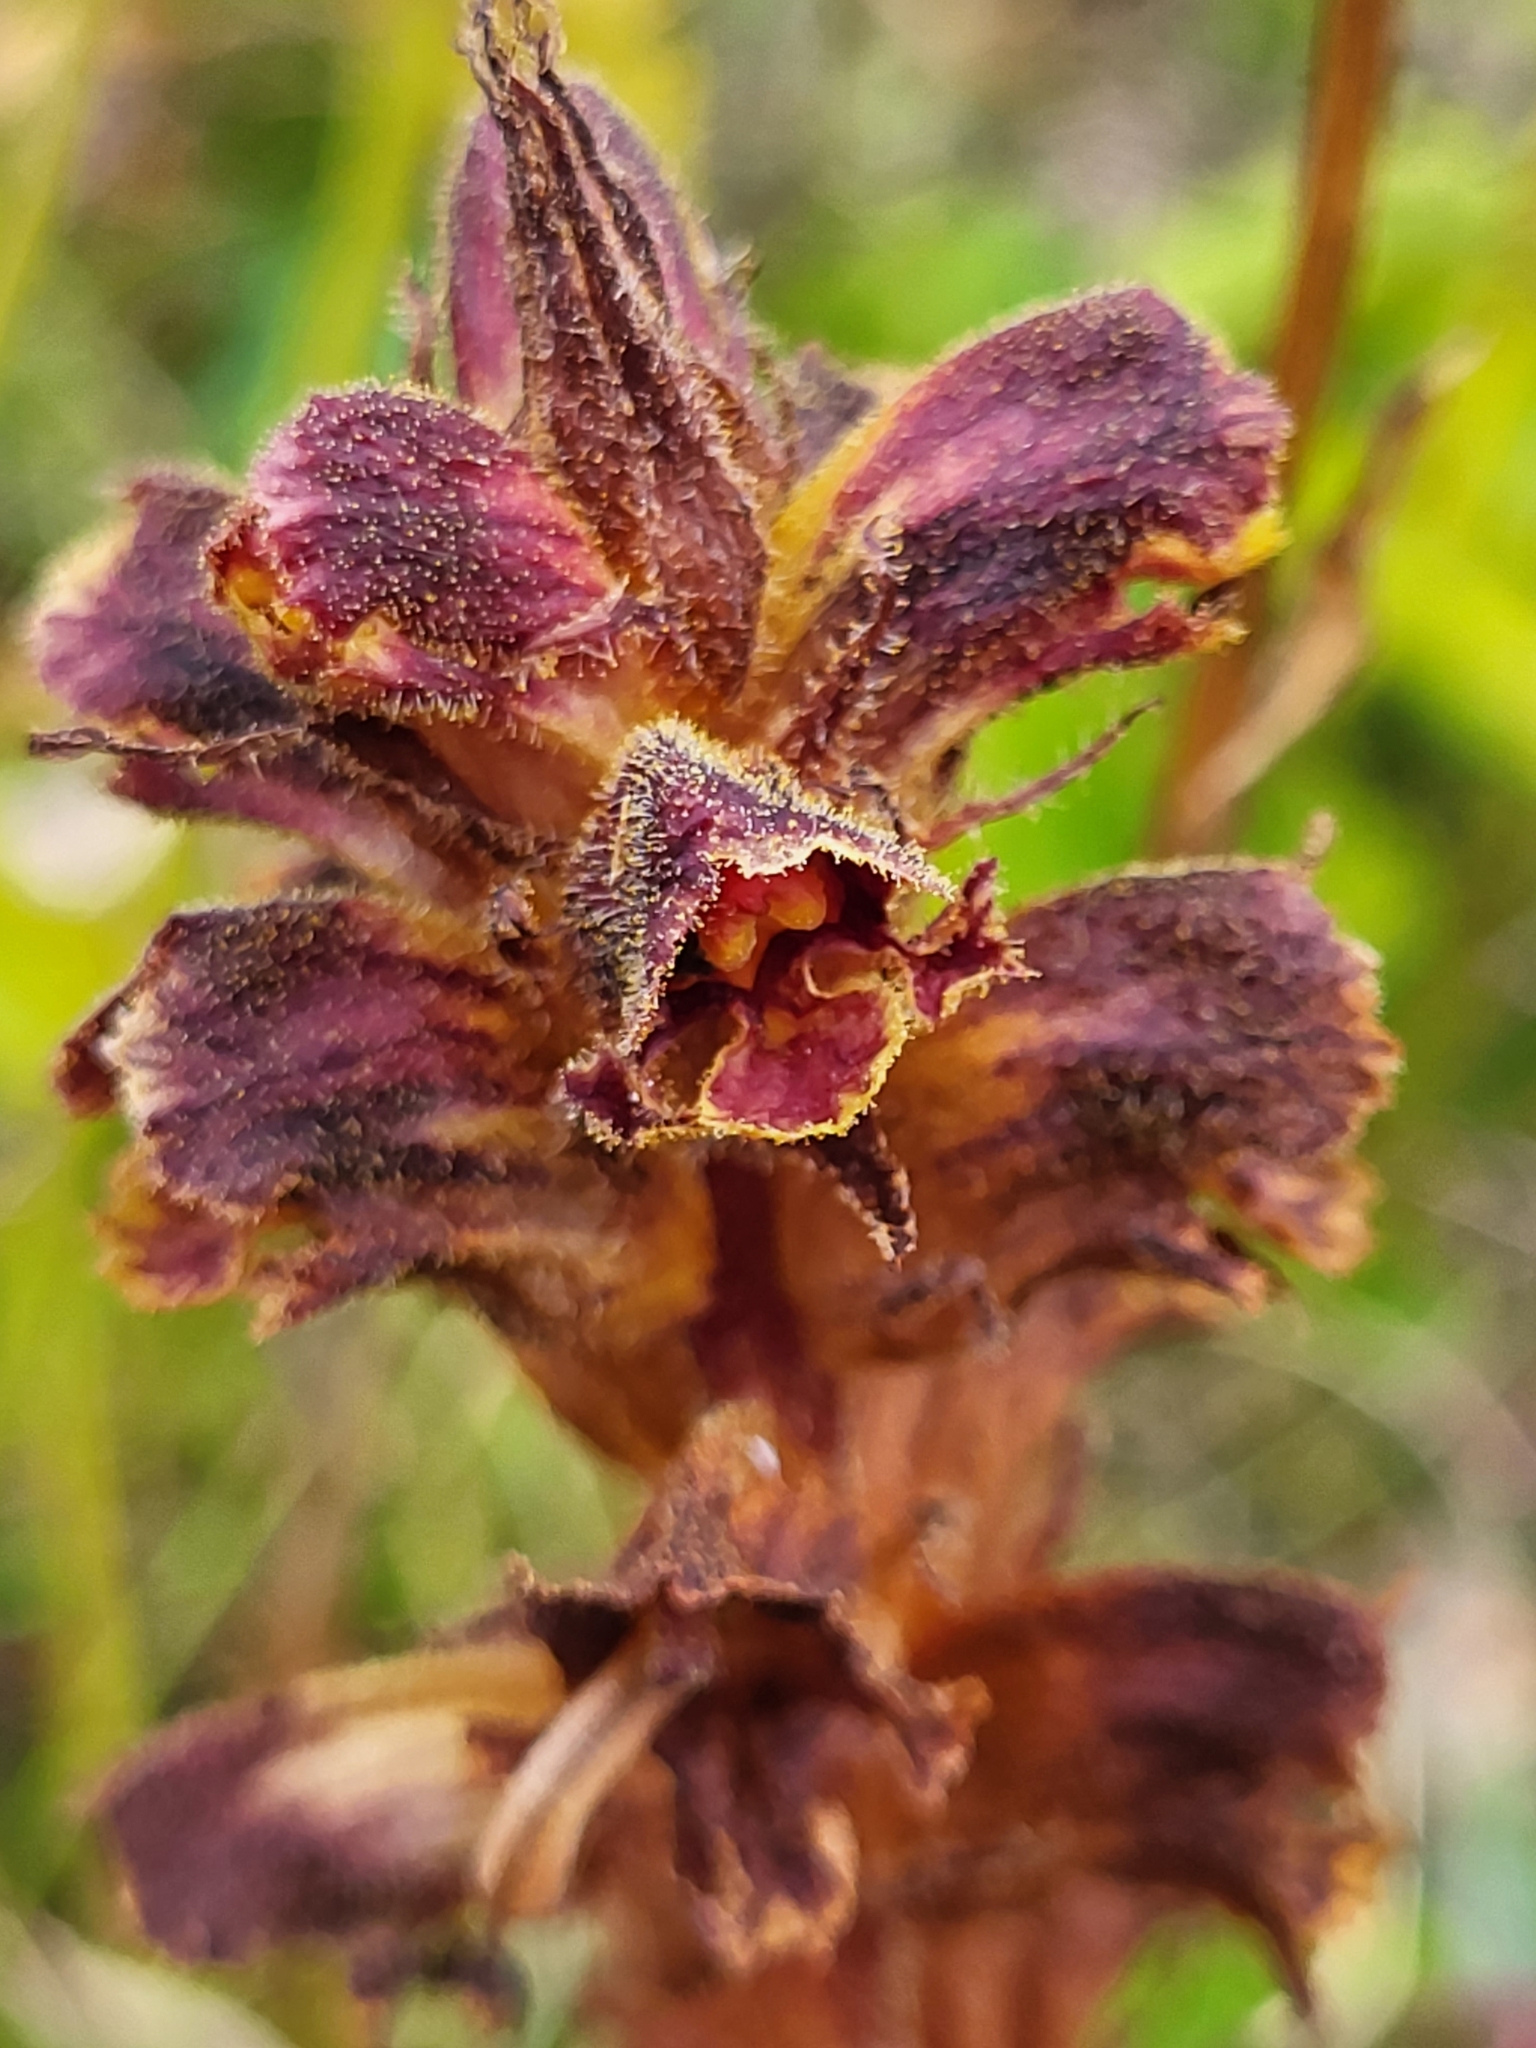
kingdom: Plantae
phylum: Tracheophyta
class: Magnoliopsida
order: Lamiales
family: Orobanchaceae
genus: Orobanche
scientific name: Orobanche gracilis
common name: Slender broomrape
